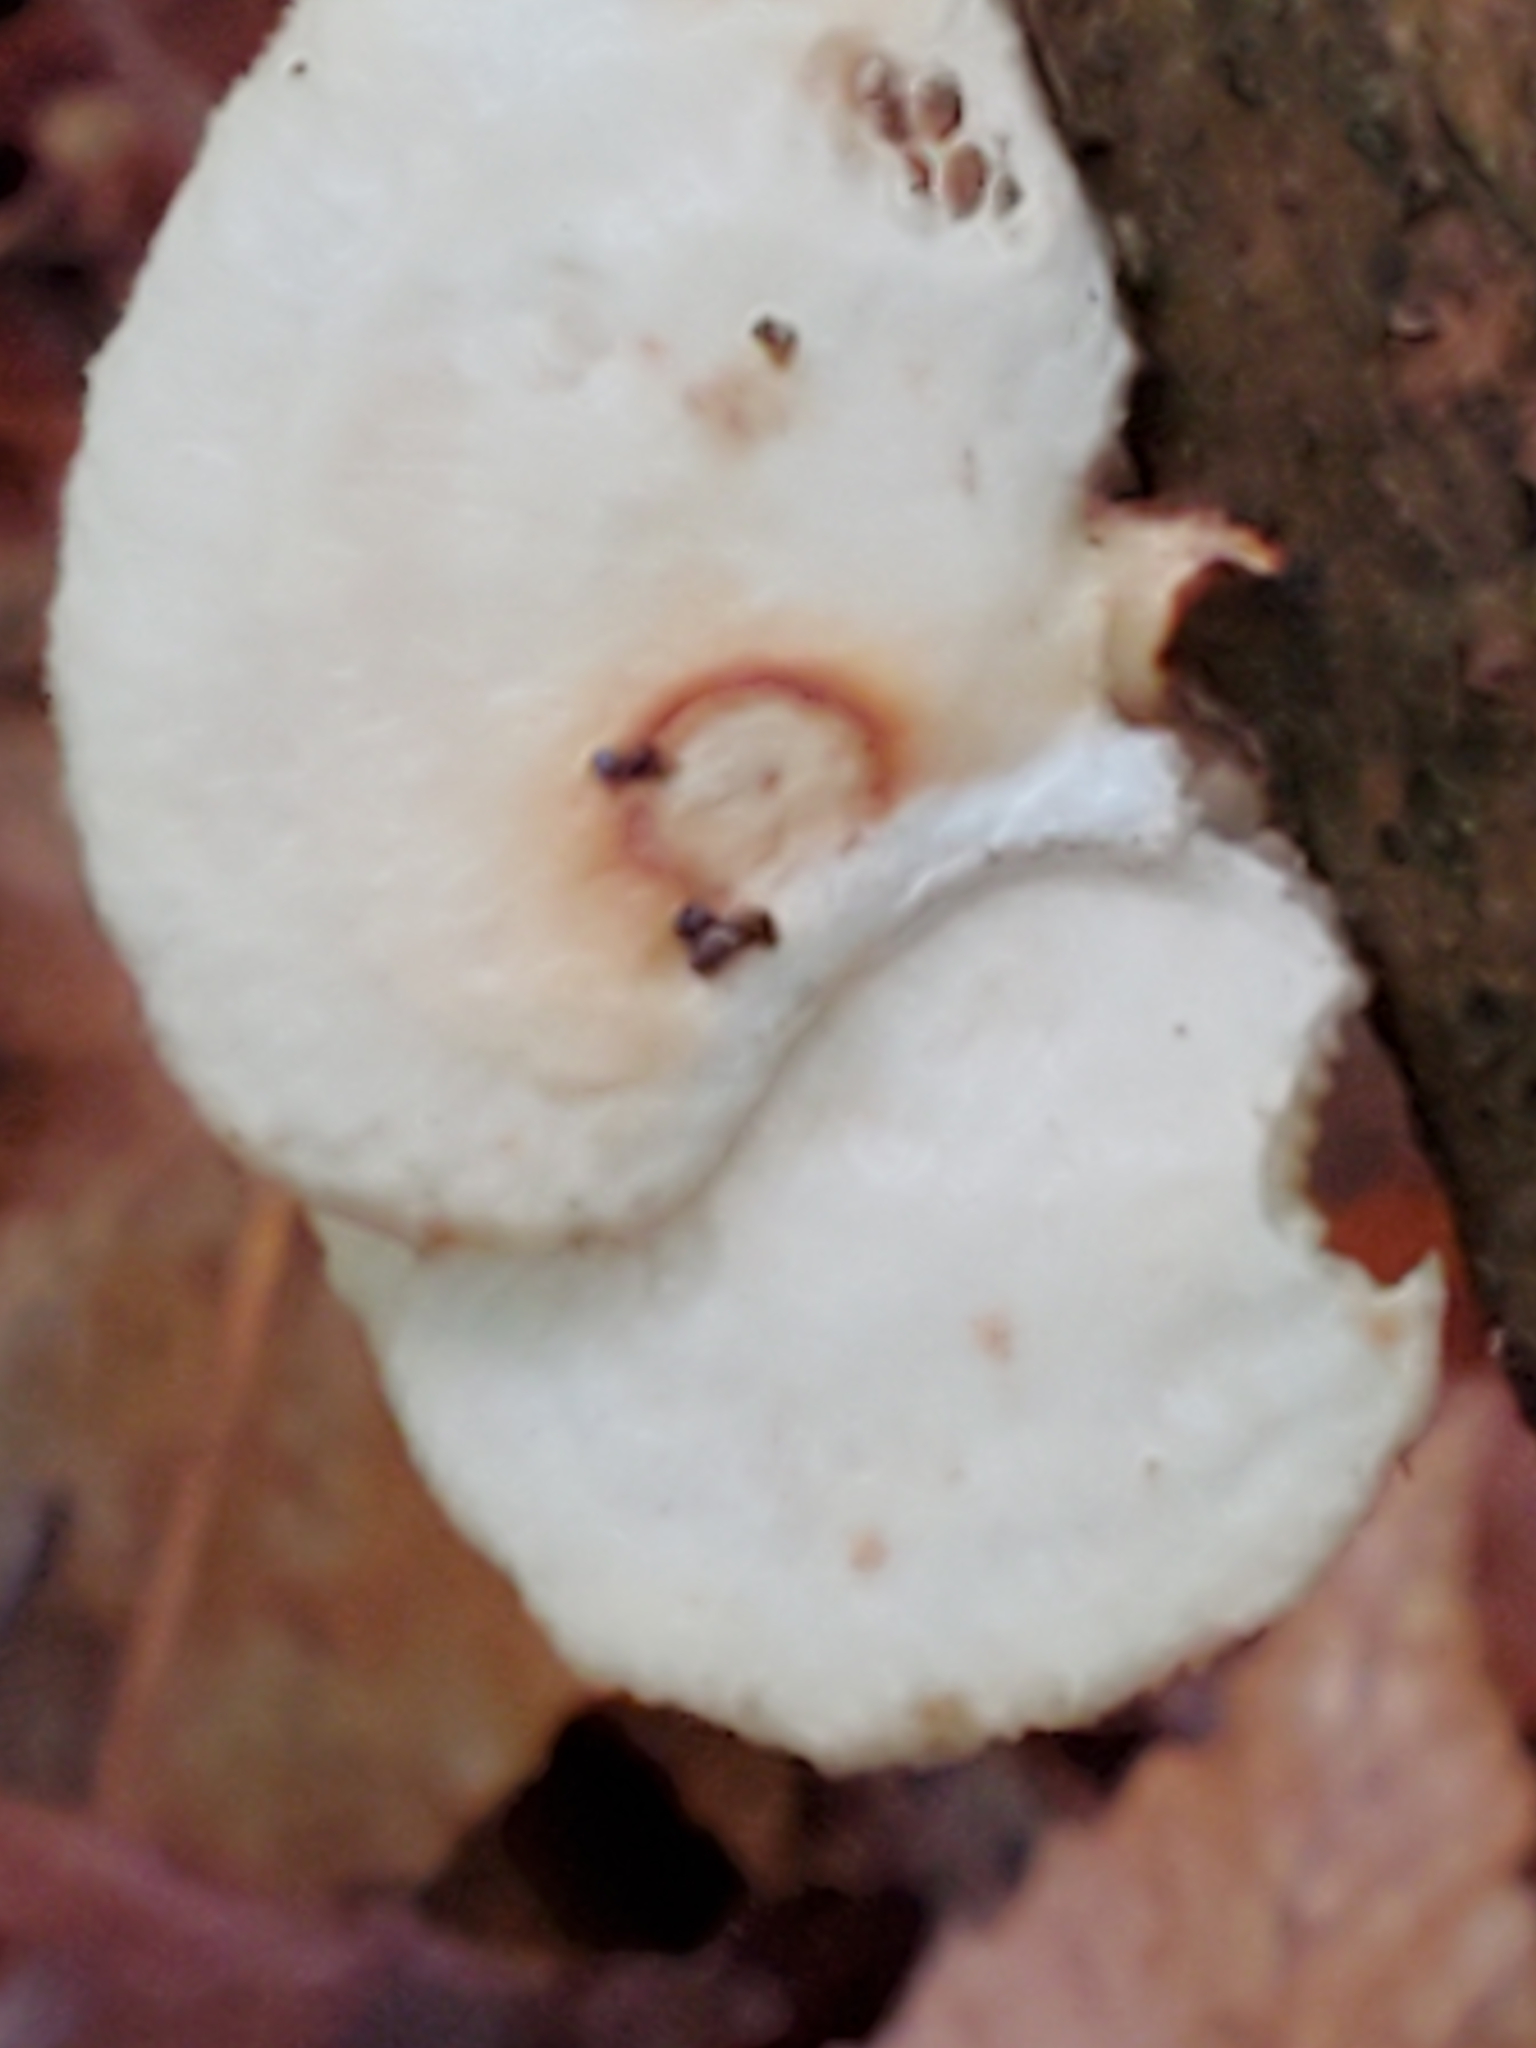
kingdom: Fungi
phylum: Basidiomycota
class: Agaricomycetes
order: Polyporales
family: Polyporaceae
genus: Neofavolus
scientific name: Neofavolus alveolaris
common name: Hexagonal-pored polypore
